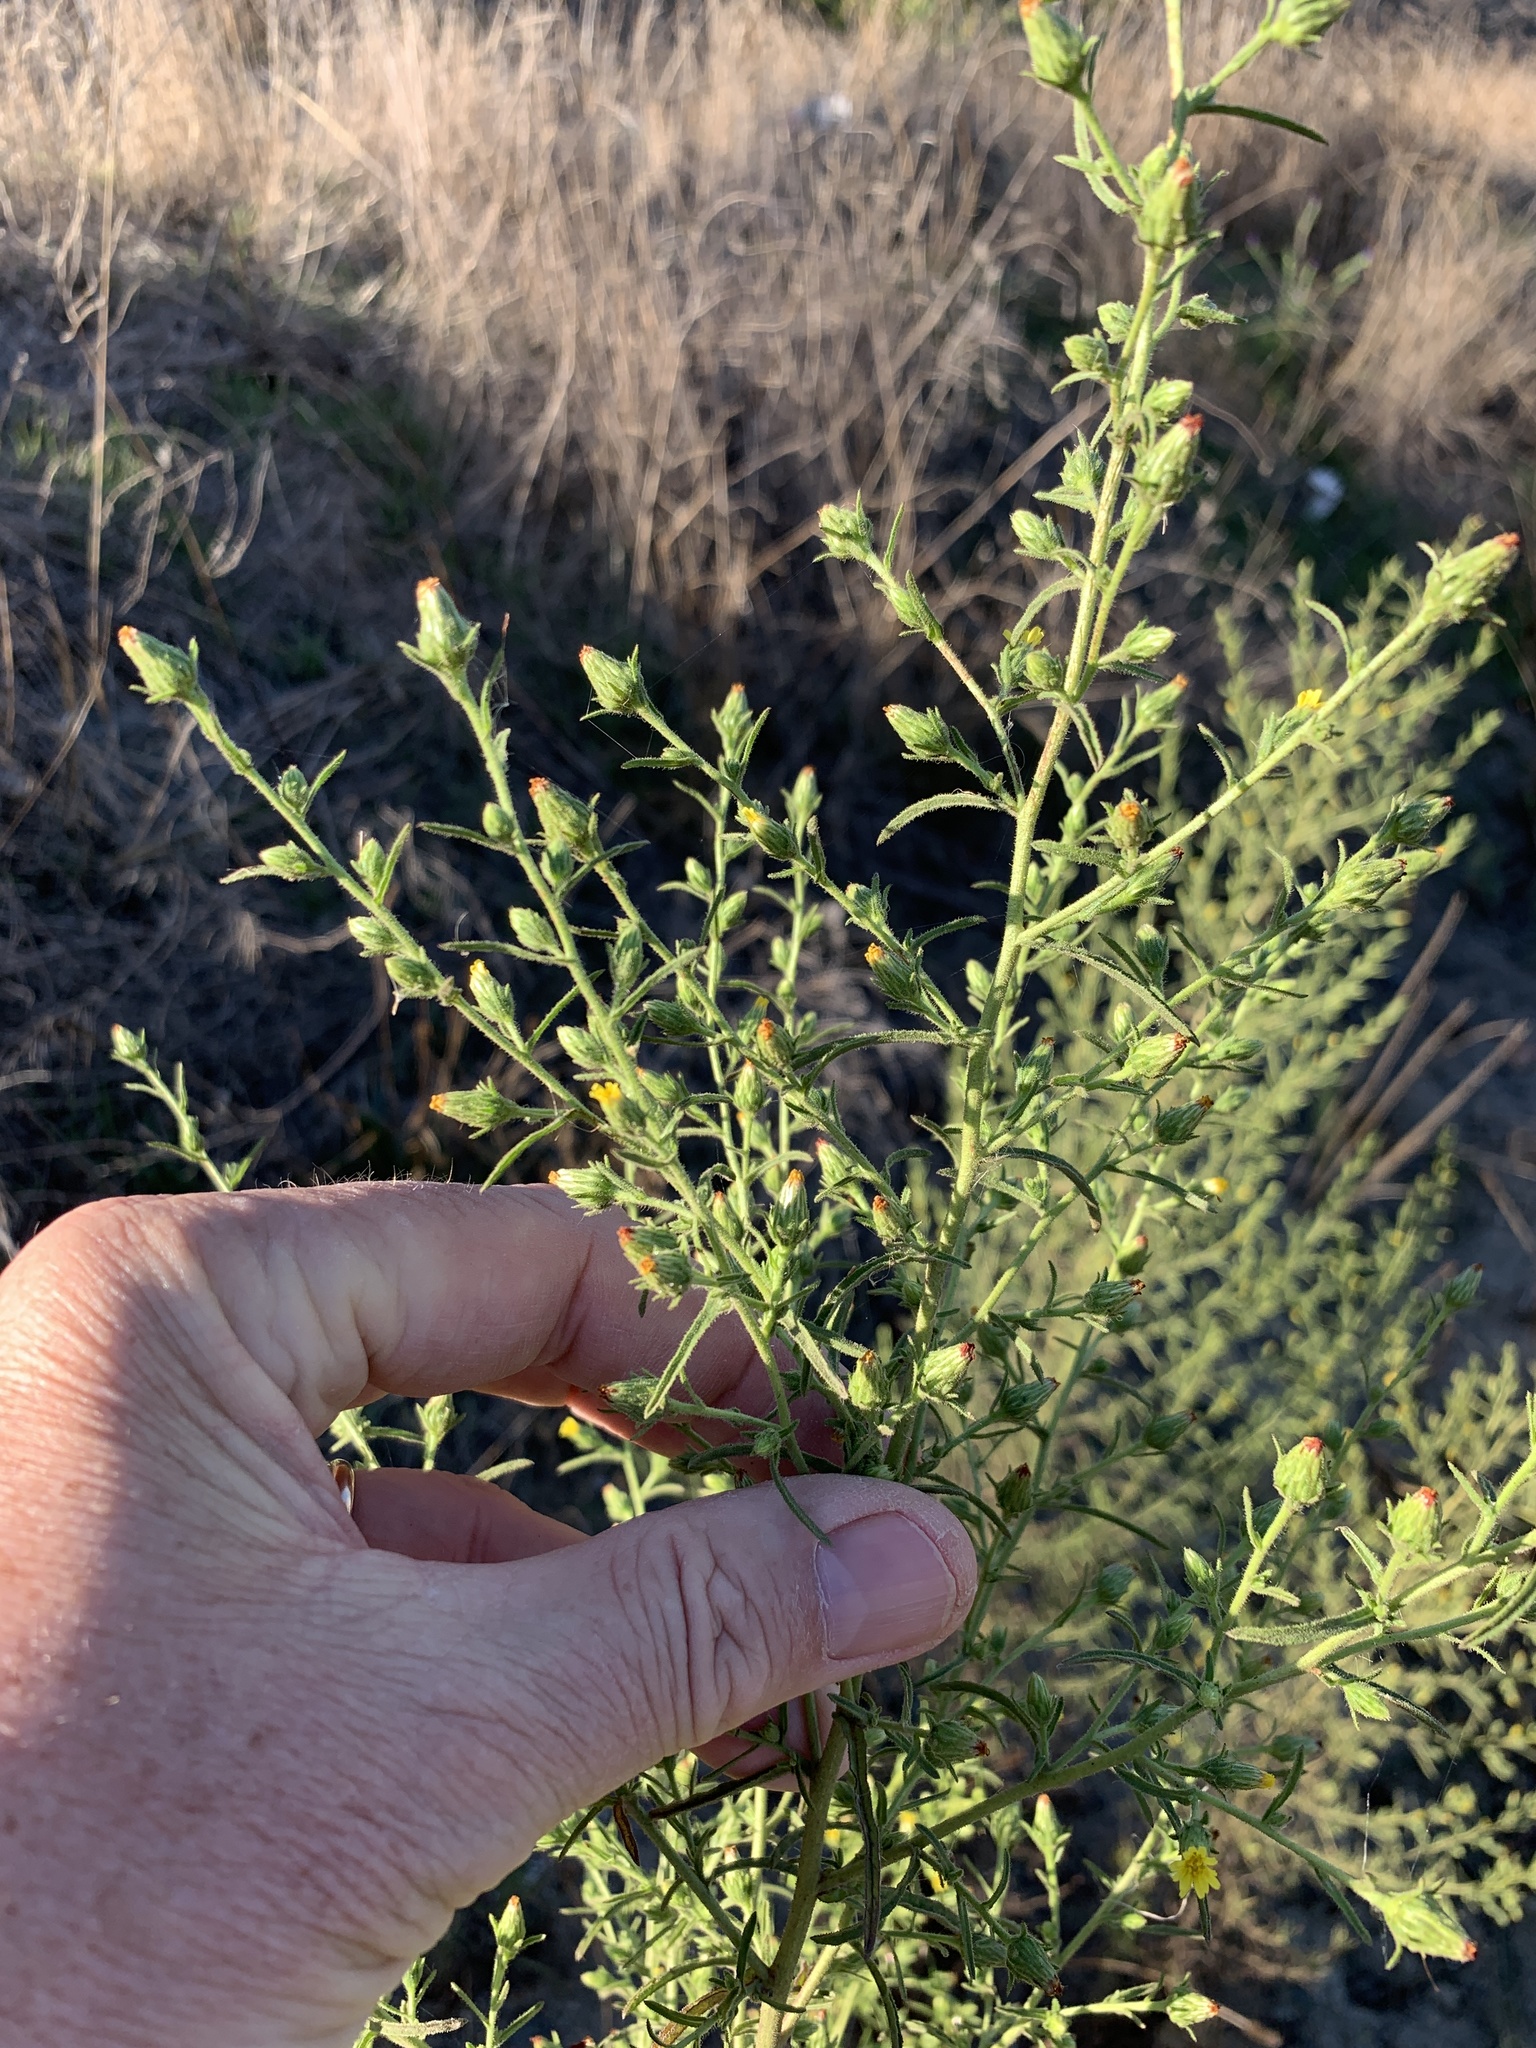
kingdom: Plantae
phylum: Tracheophyta
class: Magnoliopsida
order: Asterales
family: Asteraceae
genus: Dittrichia
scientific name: Dittrichia graveolens
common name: Stinking fleabane
